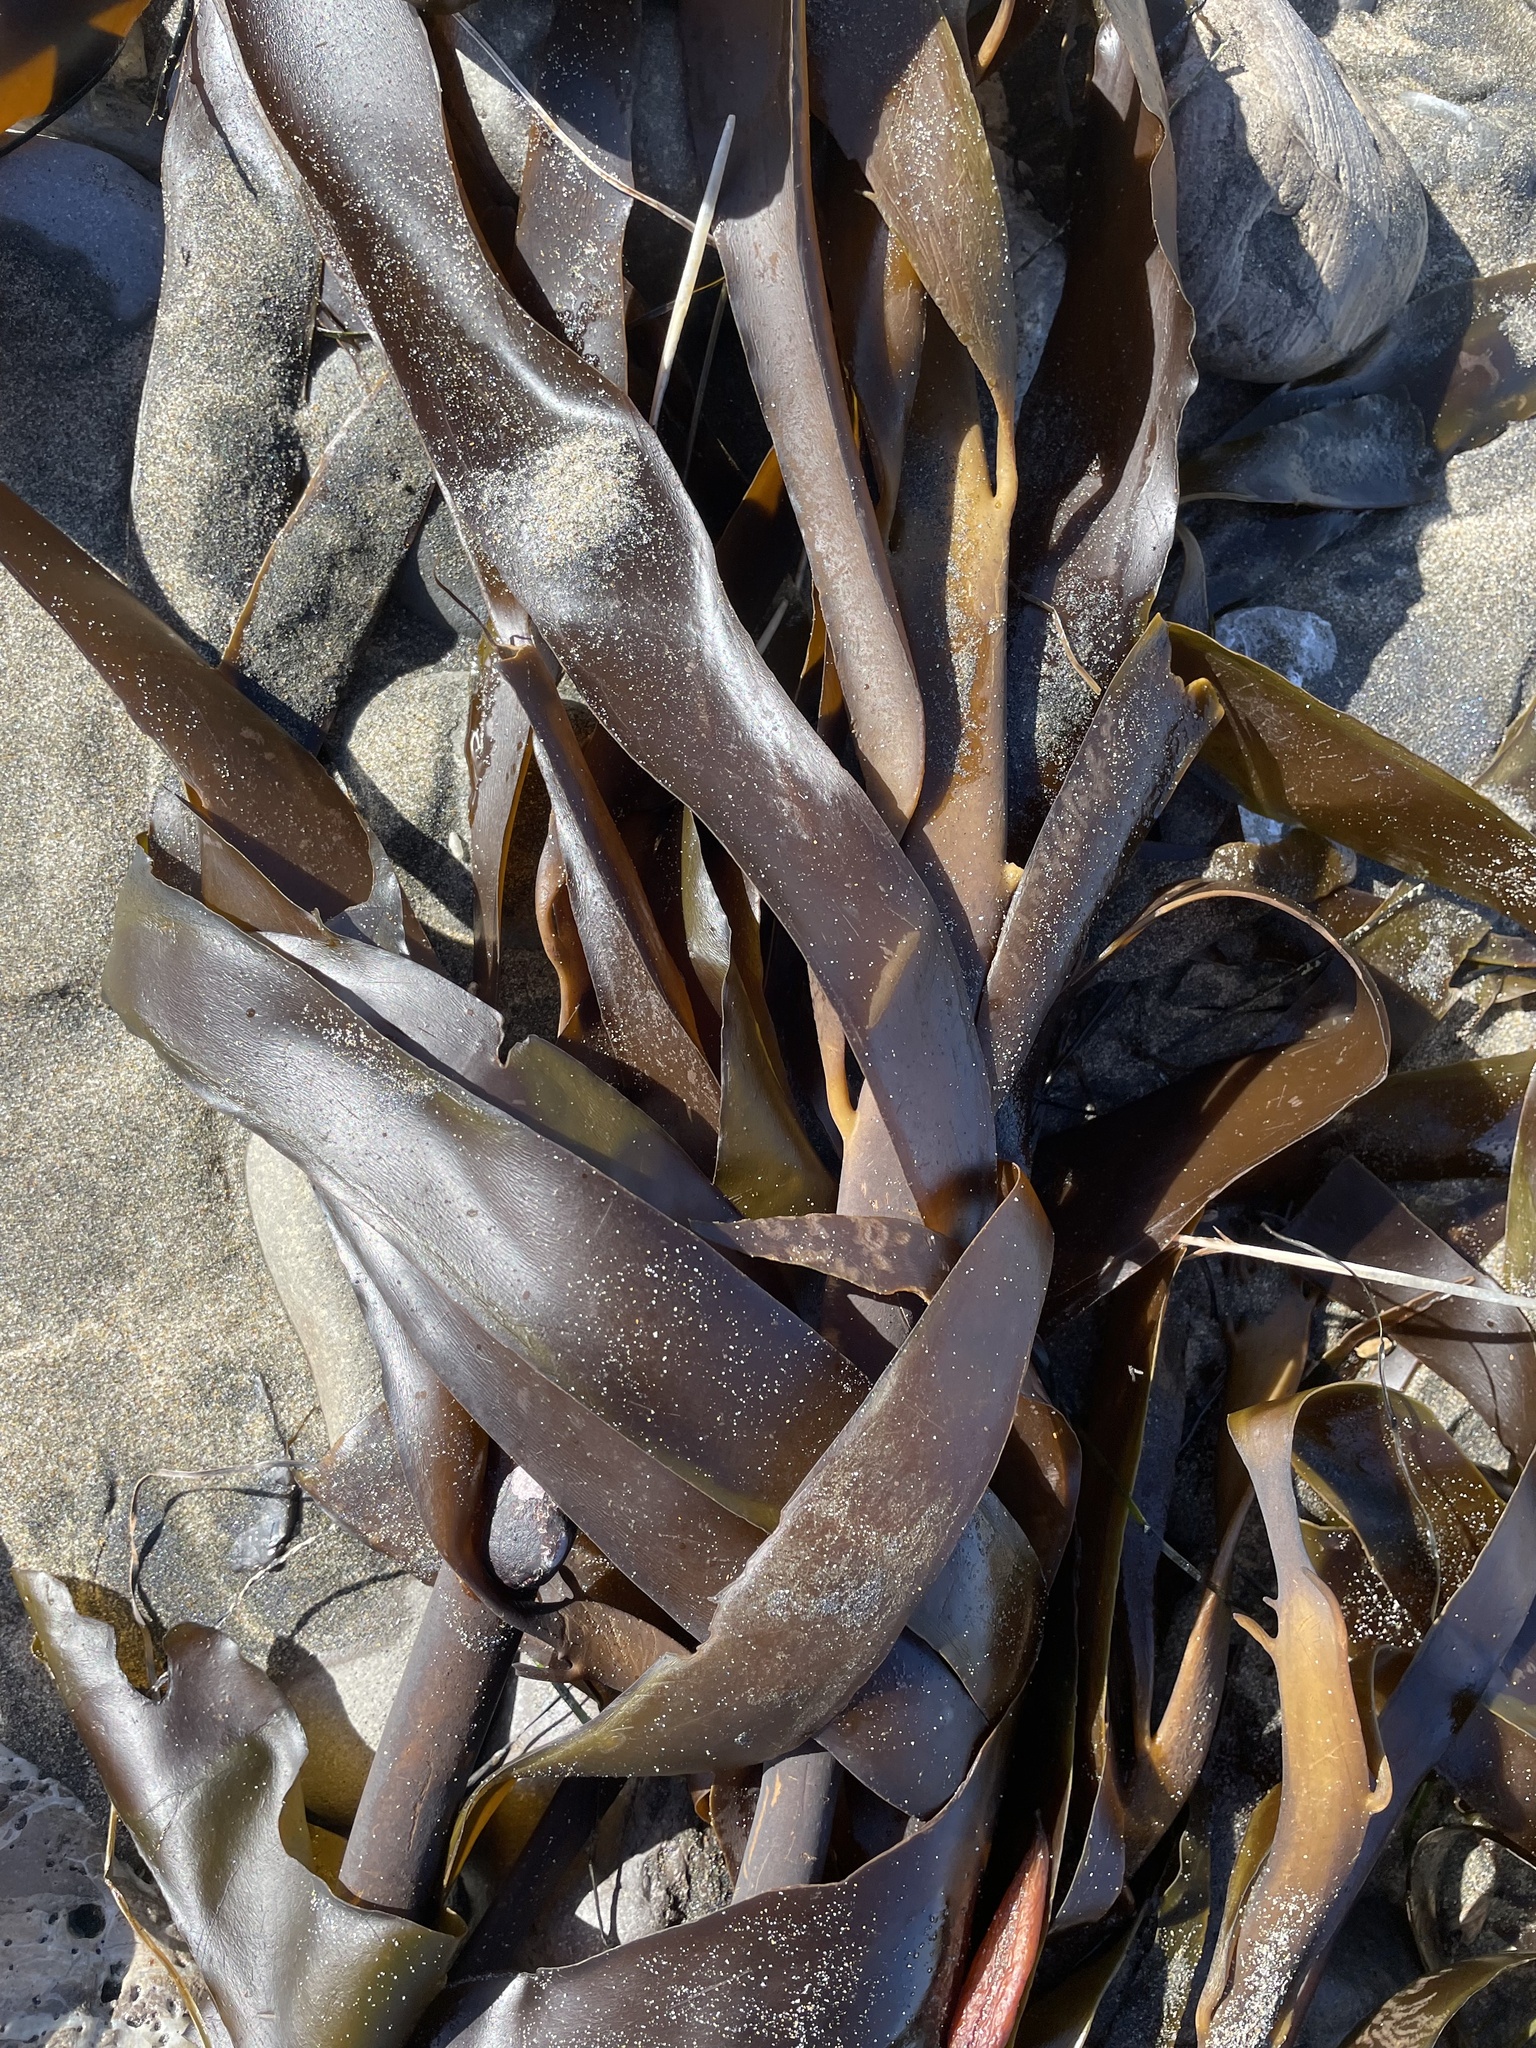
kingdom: Chromista
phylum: Ochrophyta
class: Phaeophyceae
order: Laminariales
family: Alariaceae
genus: Pterygophora
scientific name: Pterygophora californica
